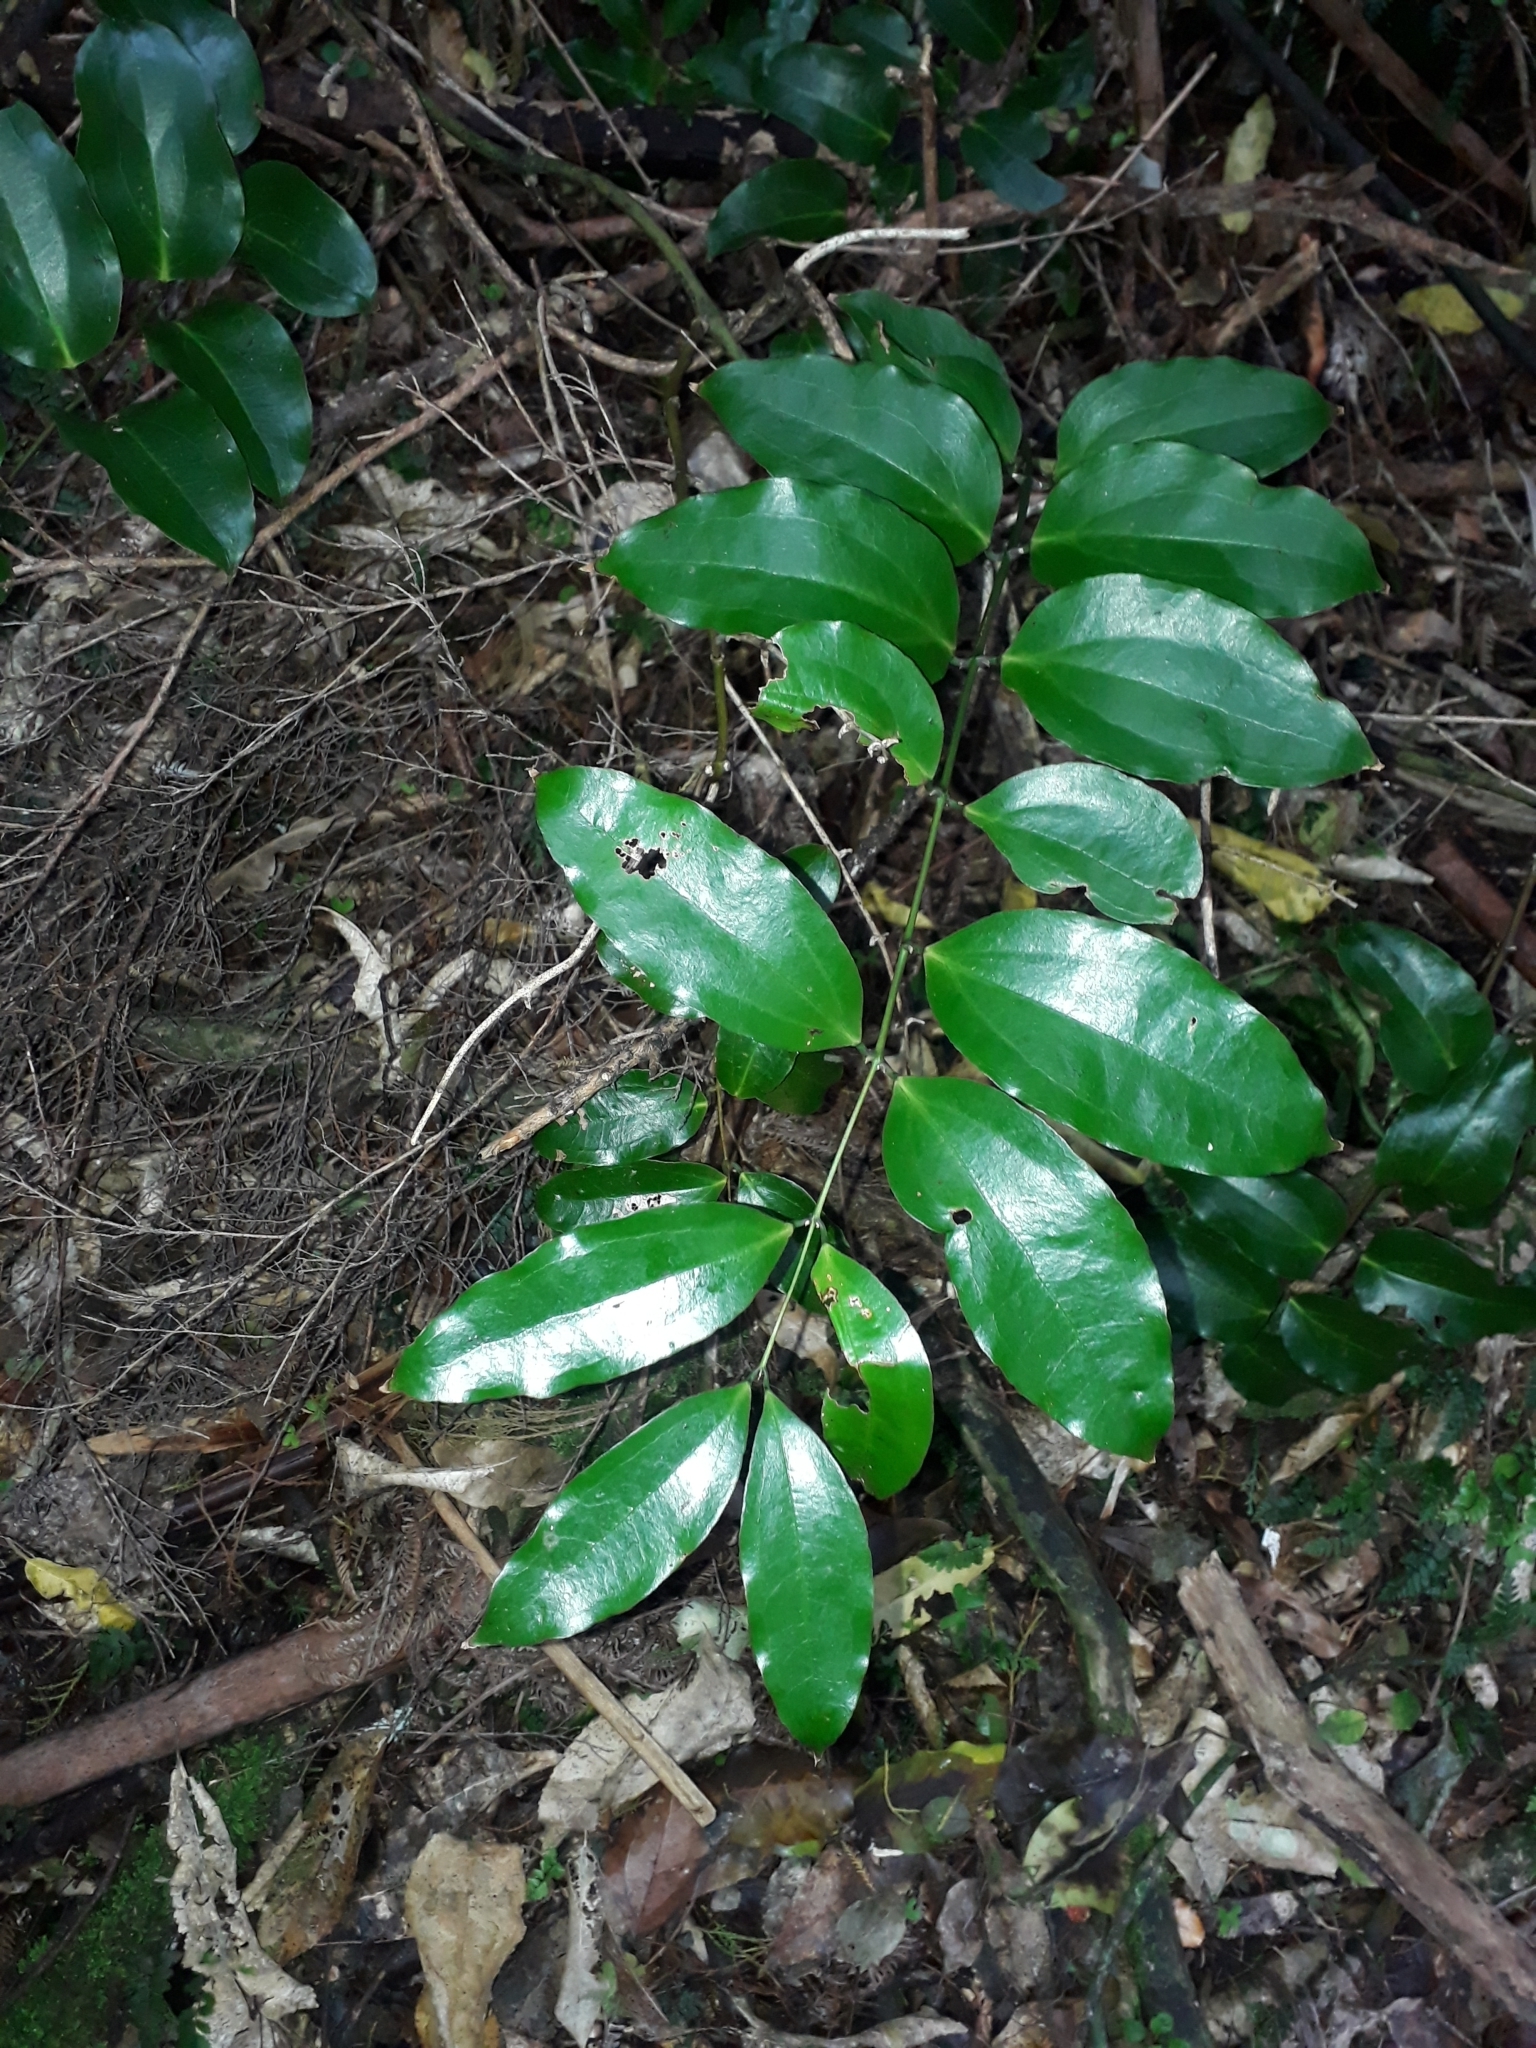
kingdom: Plantae
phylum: Tracheophyta
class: Liliopsida
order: Liliales
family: Ripogonaceae
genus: Ripogonum
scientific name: Ripogonum scandens
